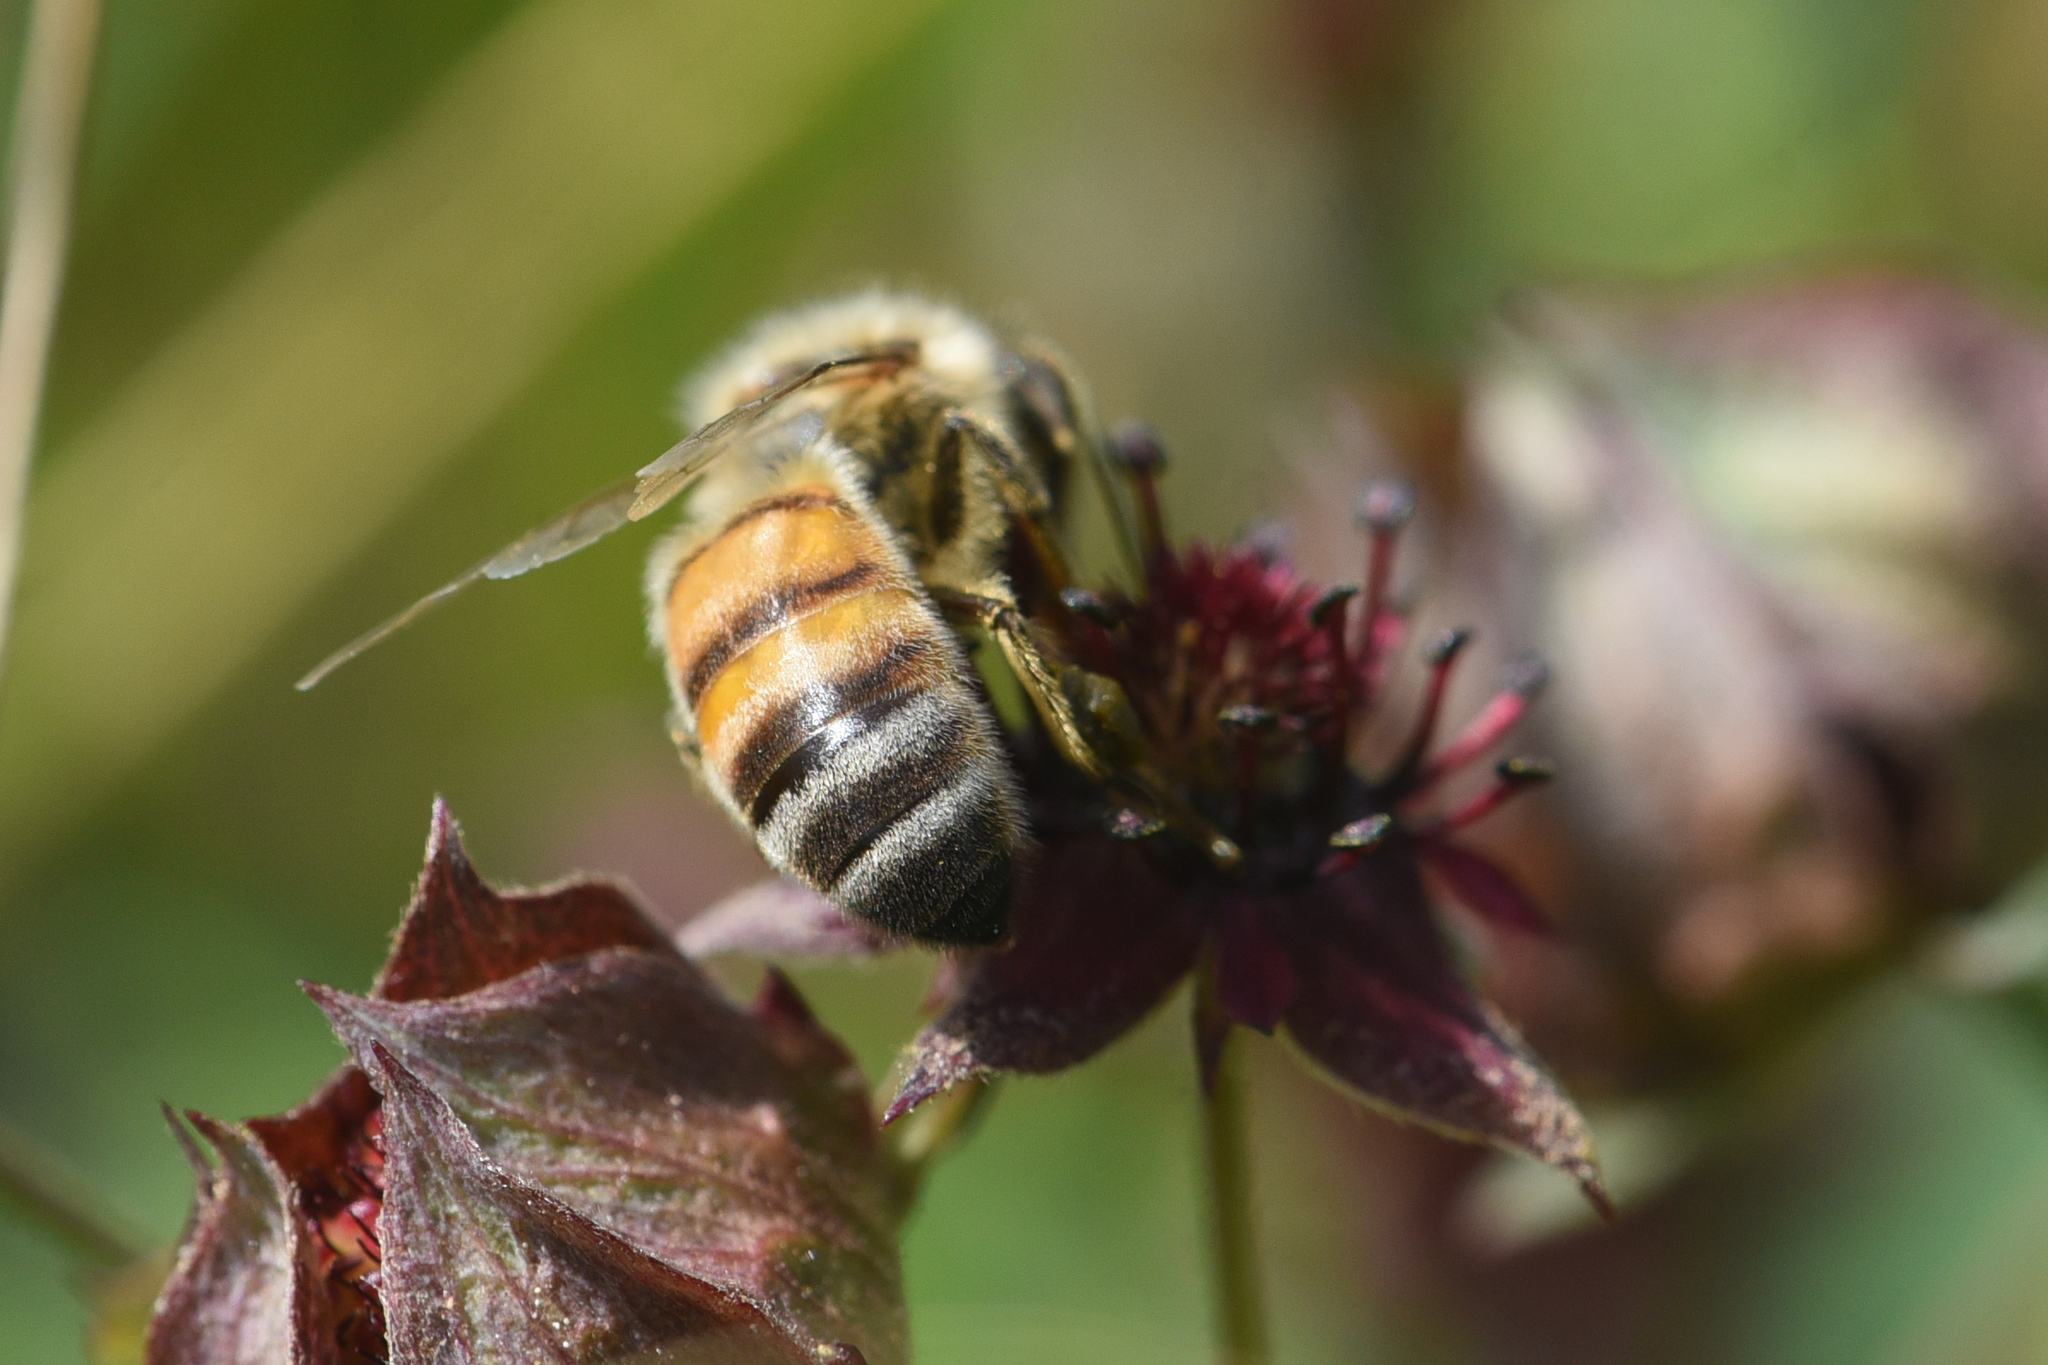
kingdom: Animalia
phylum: Arthropoda
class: Insecta
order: Hymenoptera
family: Apidae
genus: Apis
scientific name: Apis mellifera
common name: Honey bee
